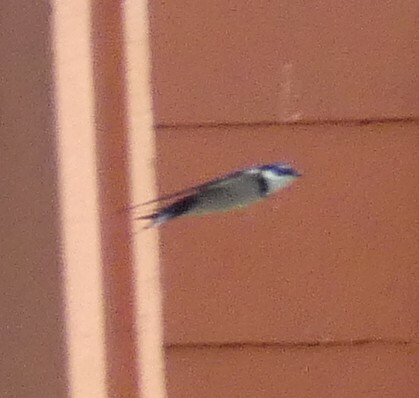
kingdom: Animalia
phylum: Chordata
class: Aves
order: Passeriformes
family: Hirundinidae
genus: Hirundo
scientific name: Hirundo albigularis
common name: White-throated swallow
